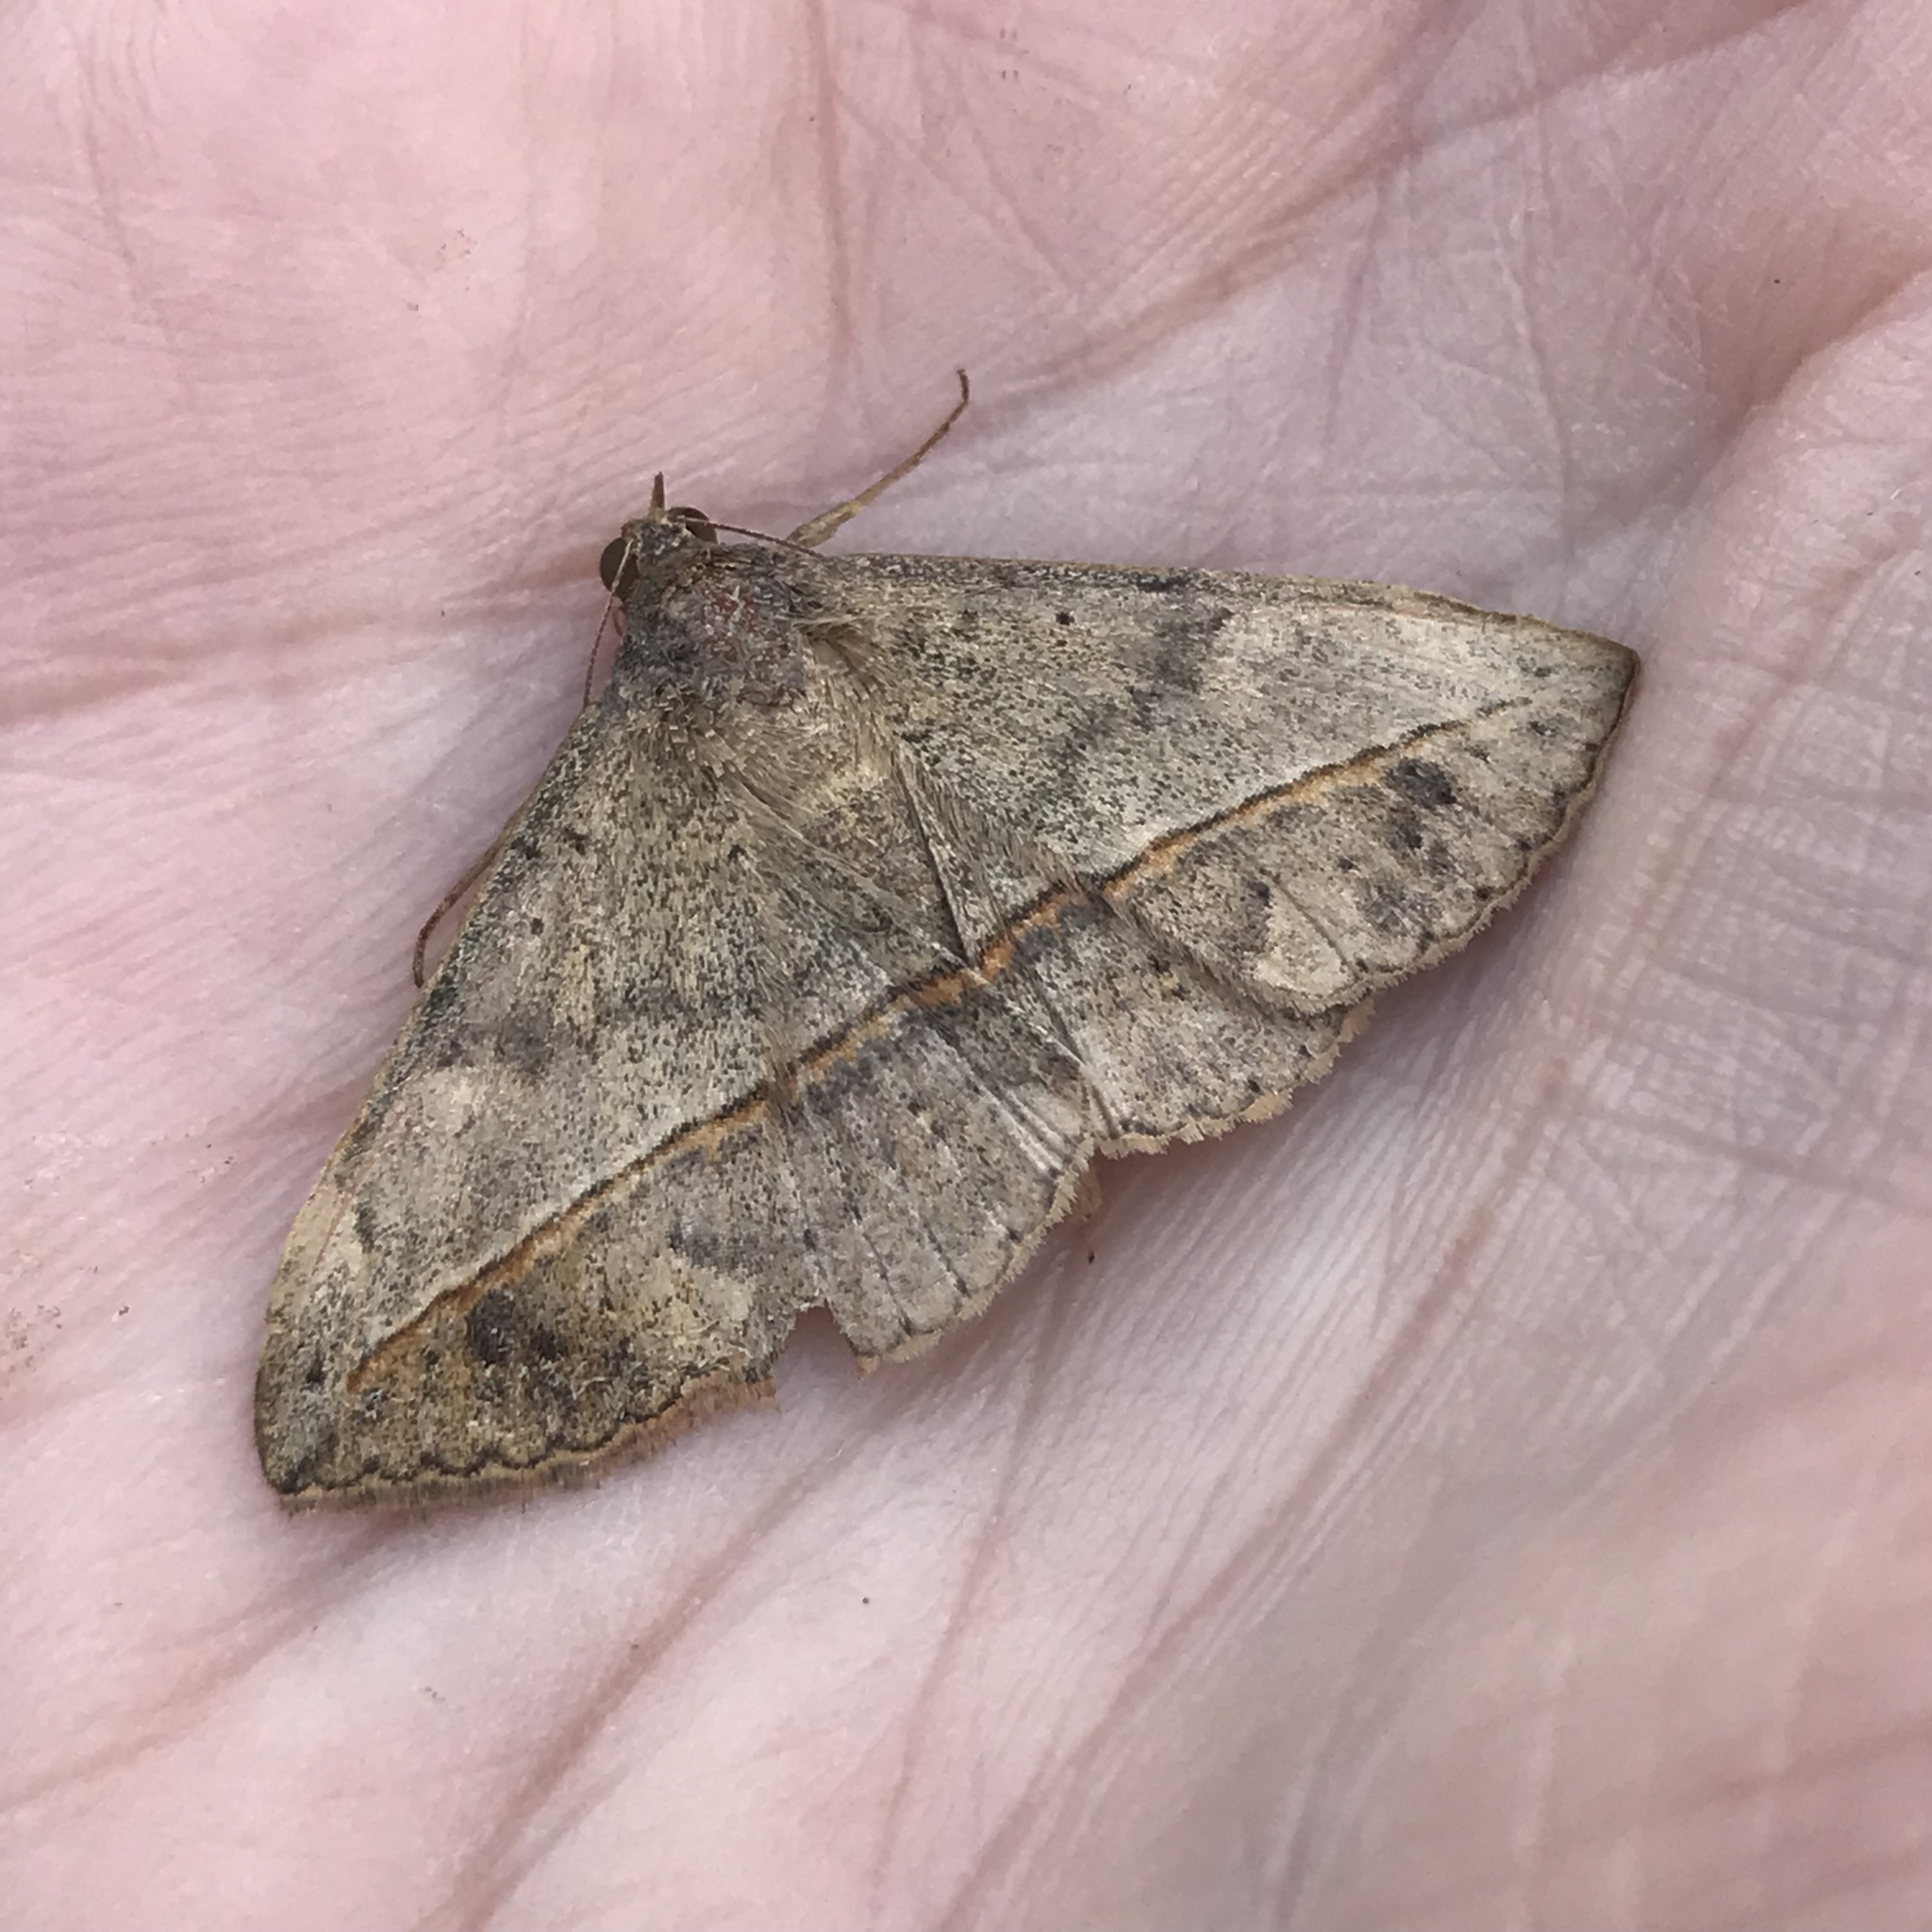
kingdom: Animalia
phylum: Arthropoda
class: Insecta
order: Lepidoptera
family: Erebidae
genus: Anticarsia
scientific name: Anticarsia gemmatalis
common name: Cutworm moth
